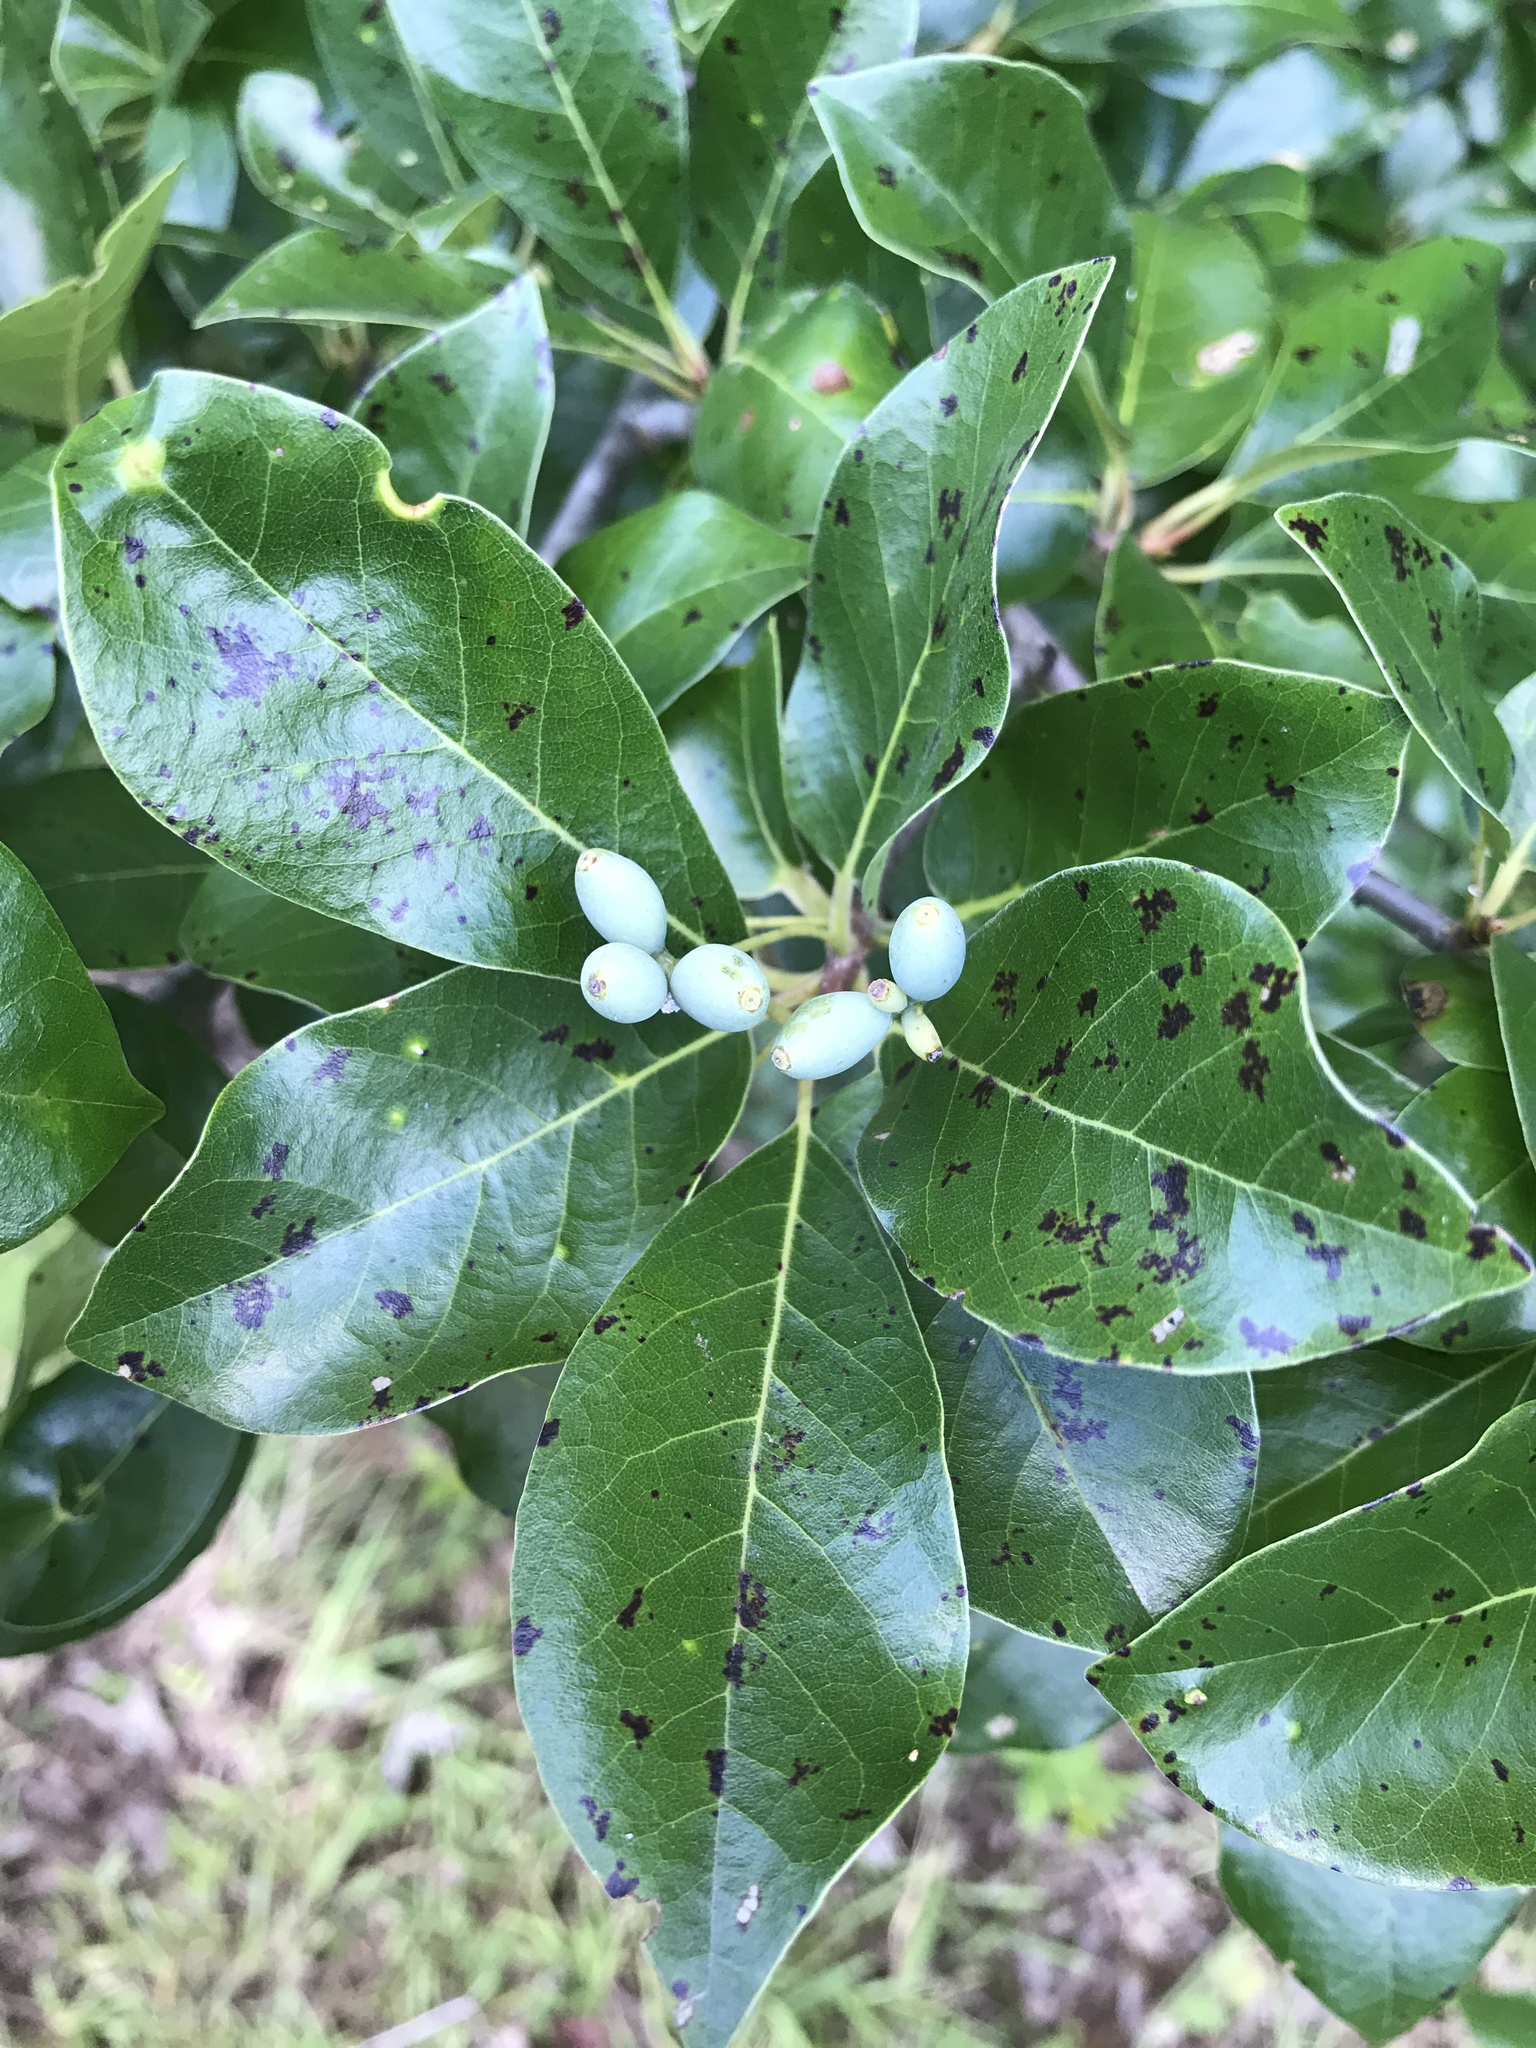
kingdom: Plantae
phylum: Tracheophyta
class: Magnoliopsida
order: Cornales
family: Nyssaceae
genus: Nyssa
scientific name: Nyssa sylvatica
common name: Black tupelo
